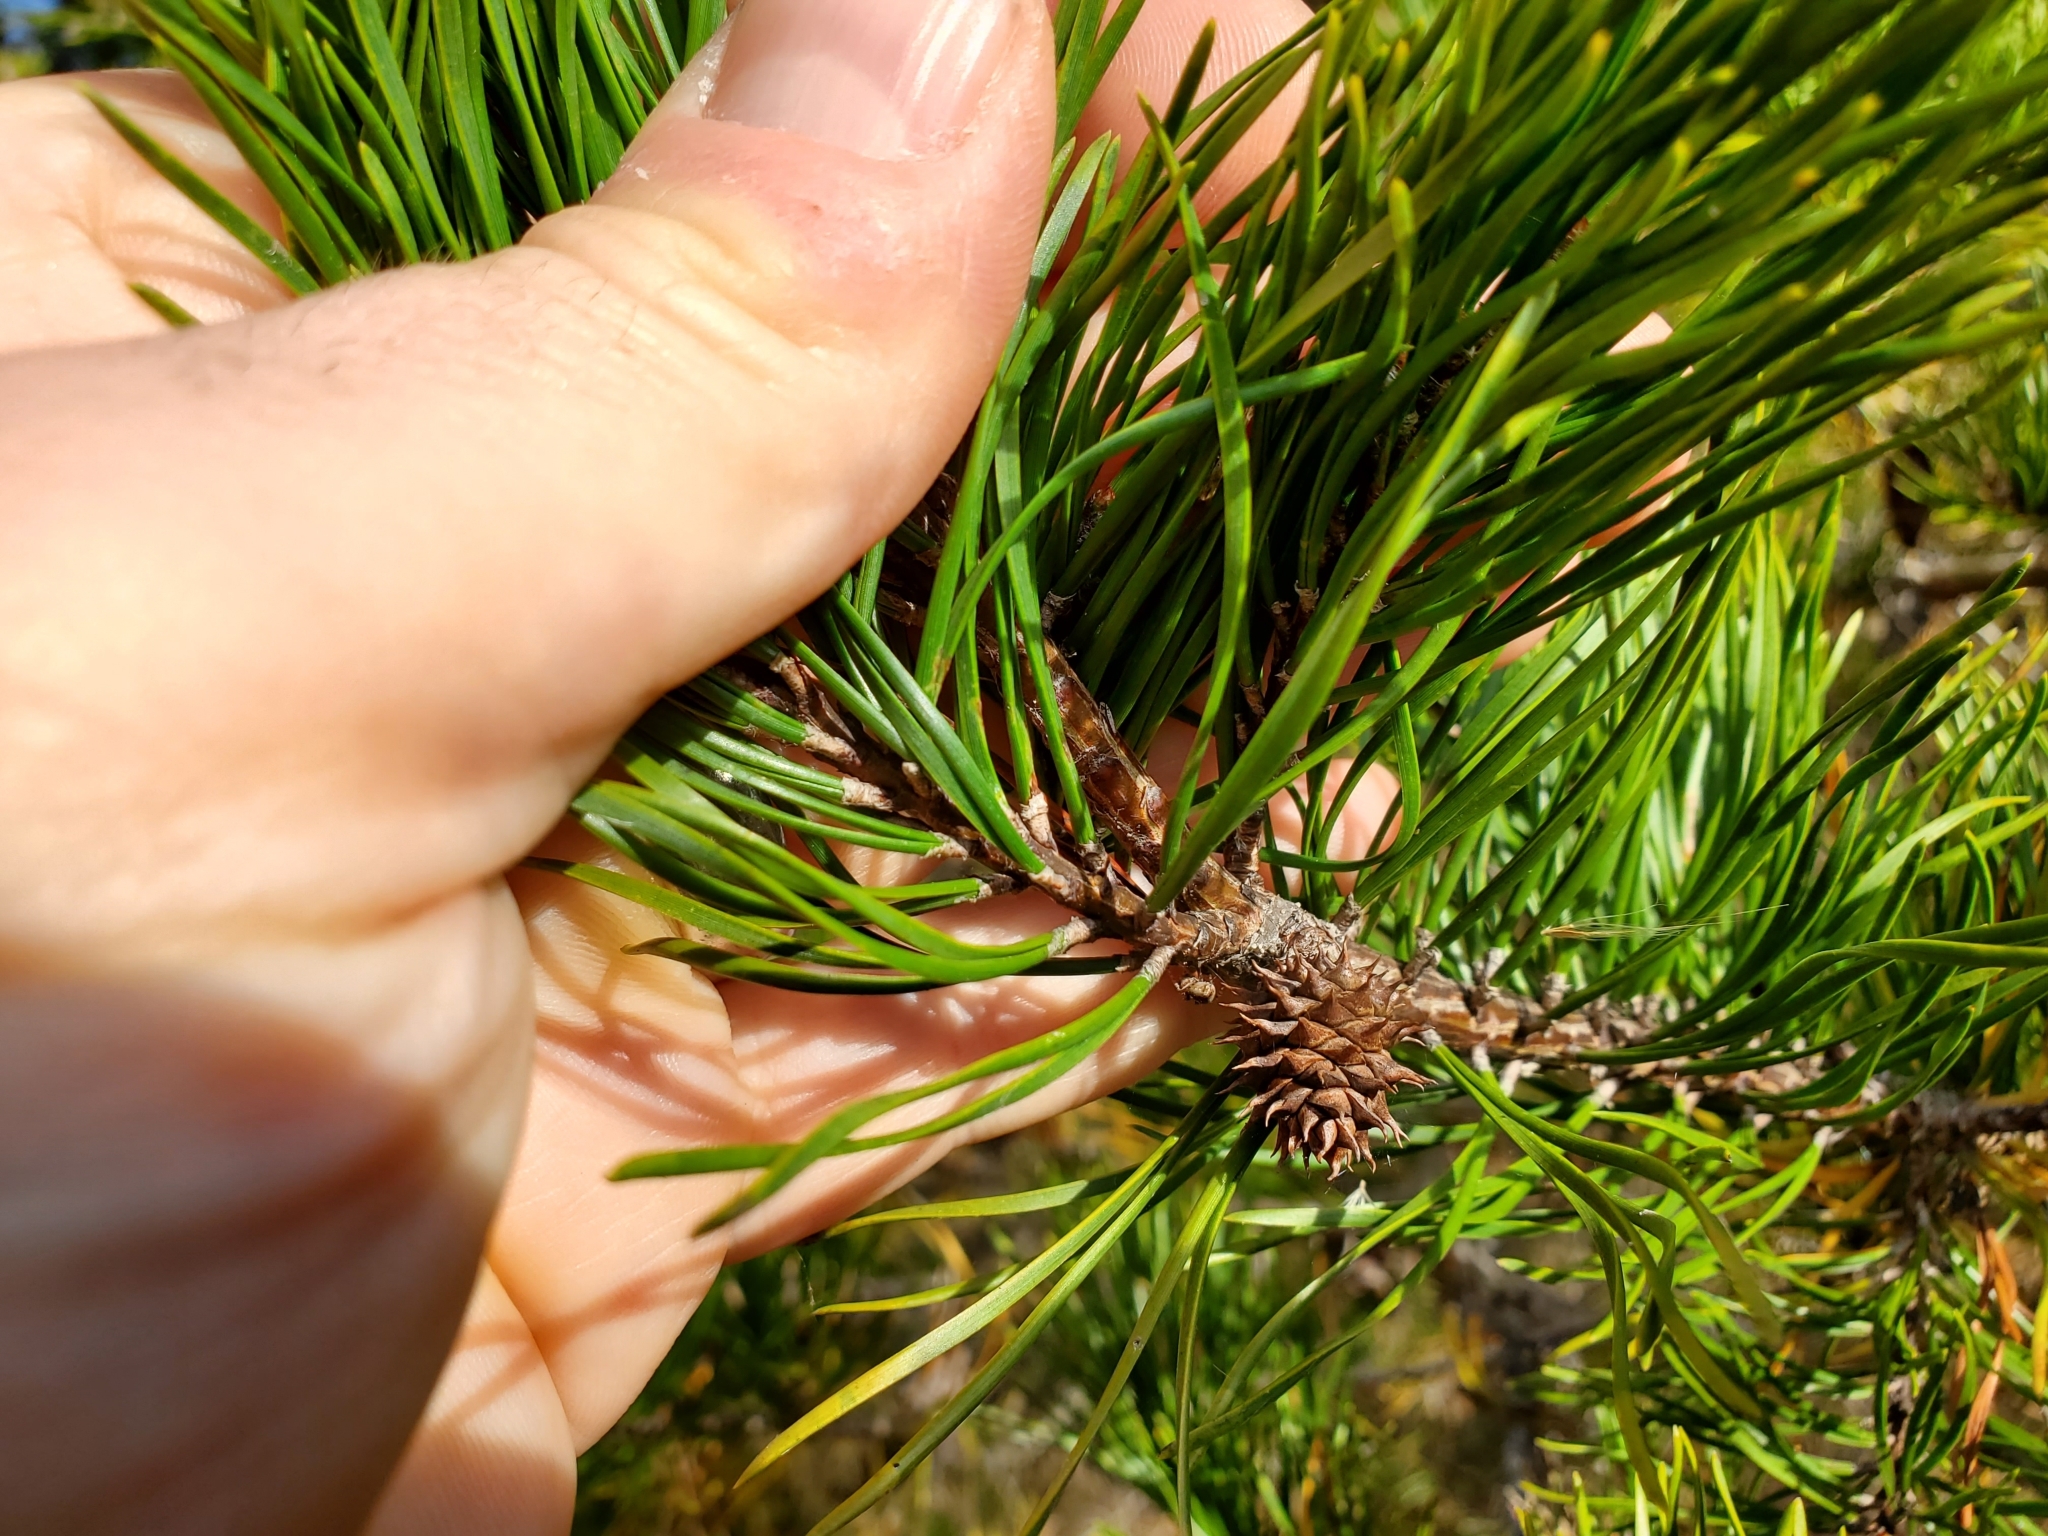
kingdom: Plantae
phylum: Tracheophyta
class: Pinopsida
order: Pinales
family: Pinaceae
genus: Pinus
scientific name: Pinus virginiana
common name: Scrub pine
